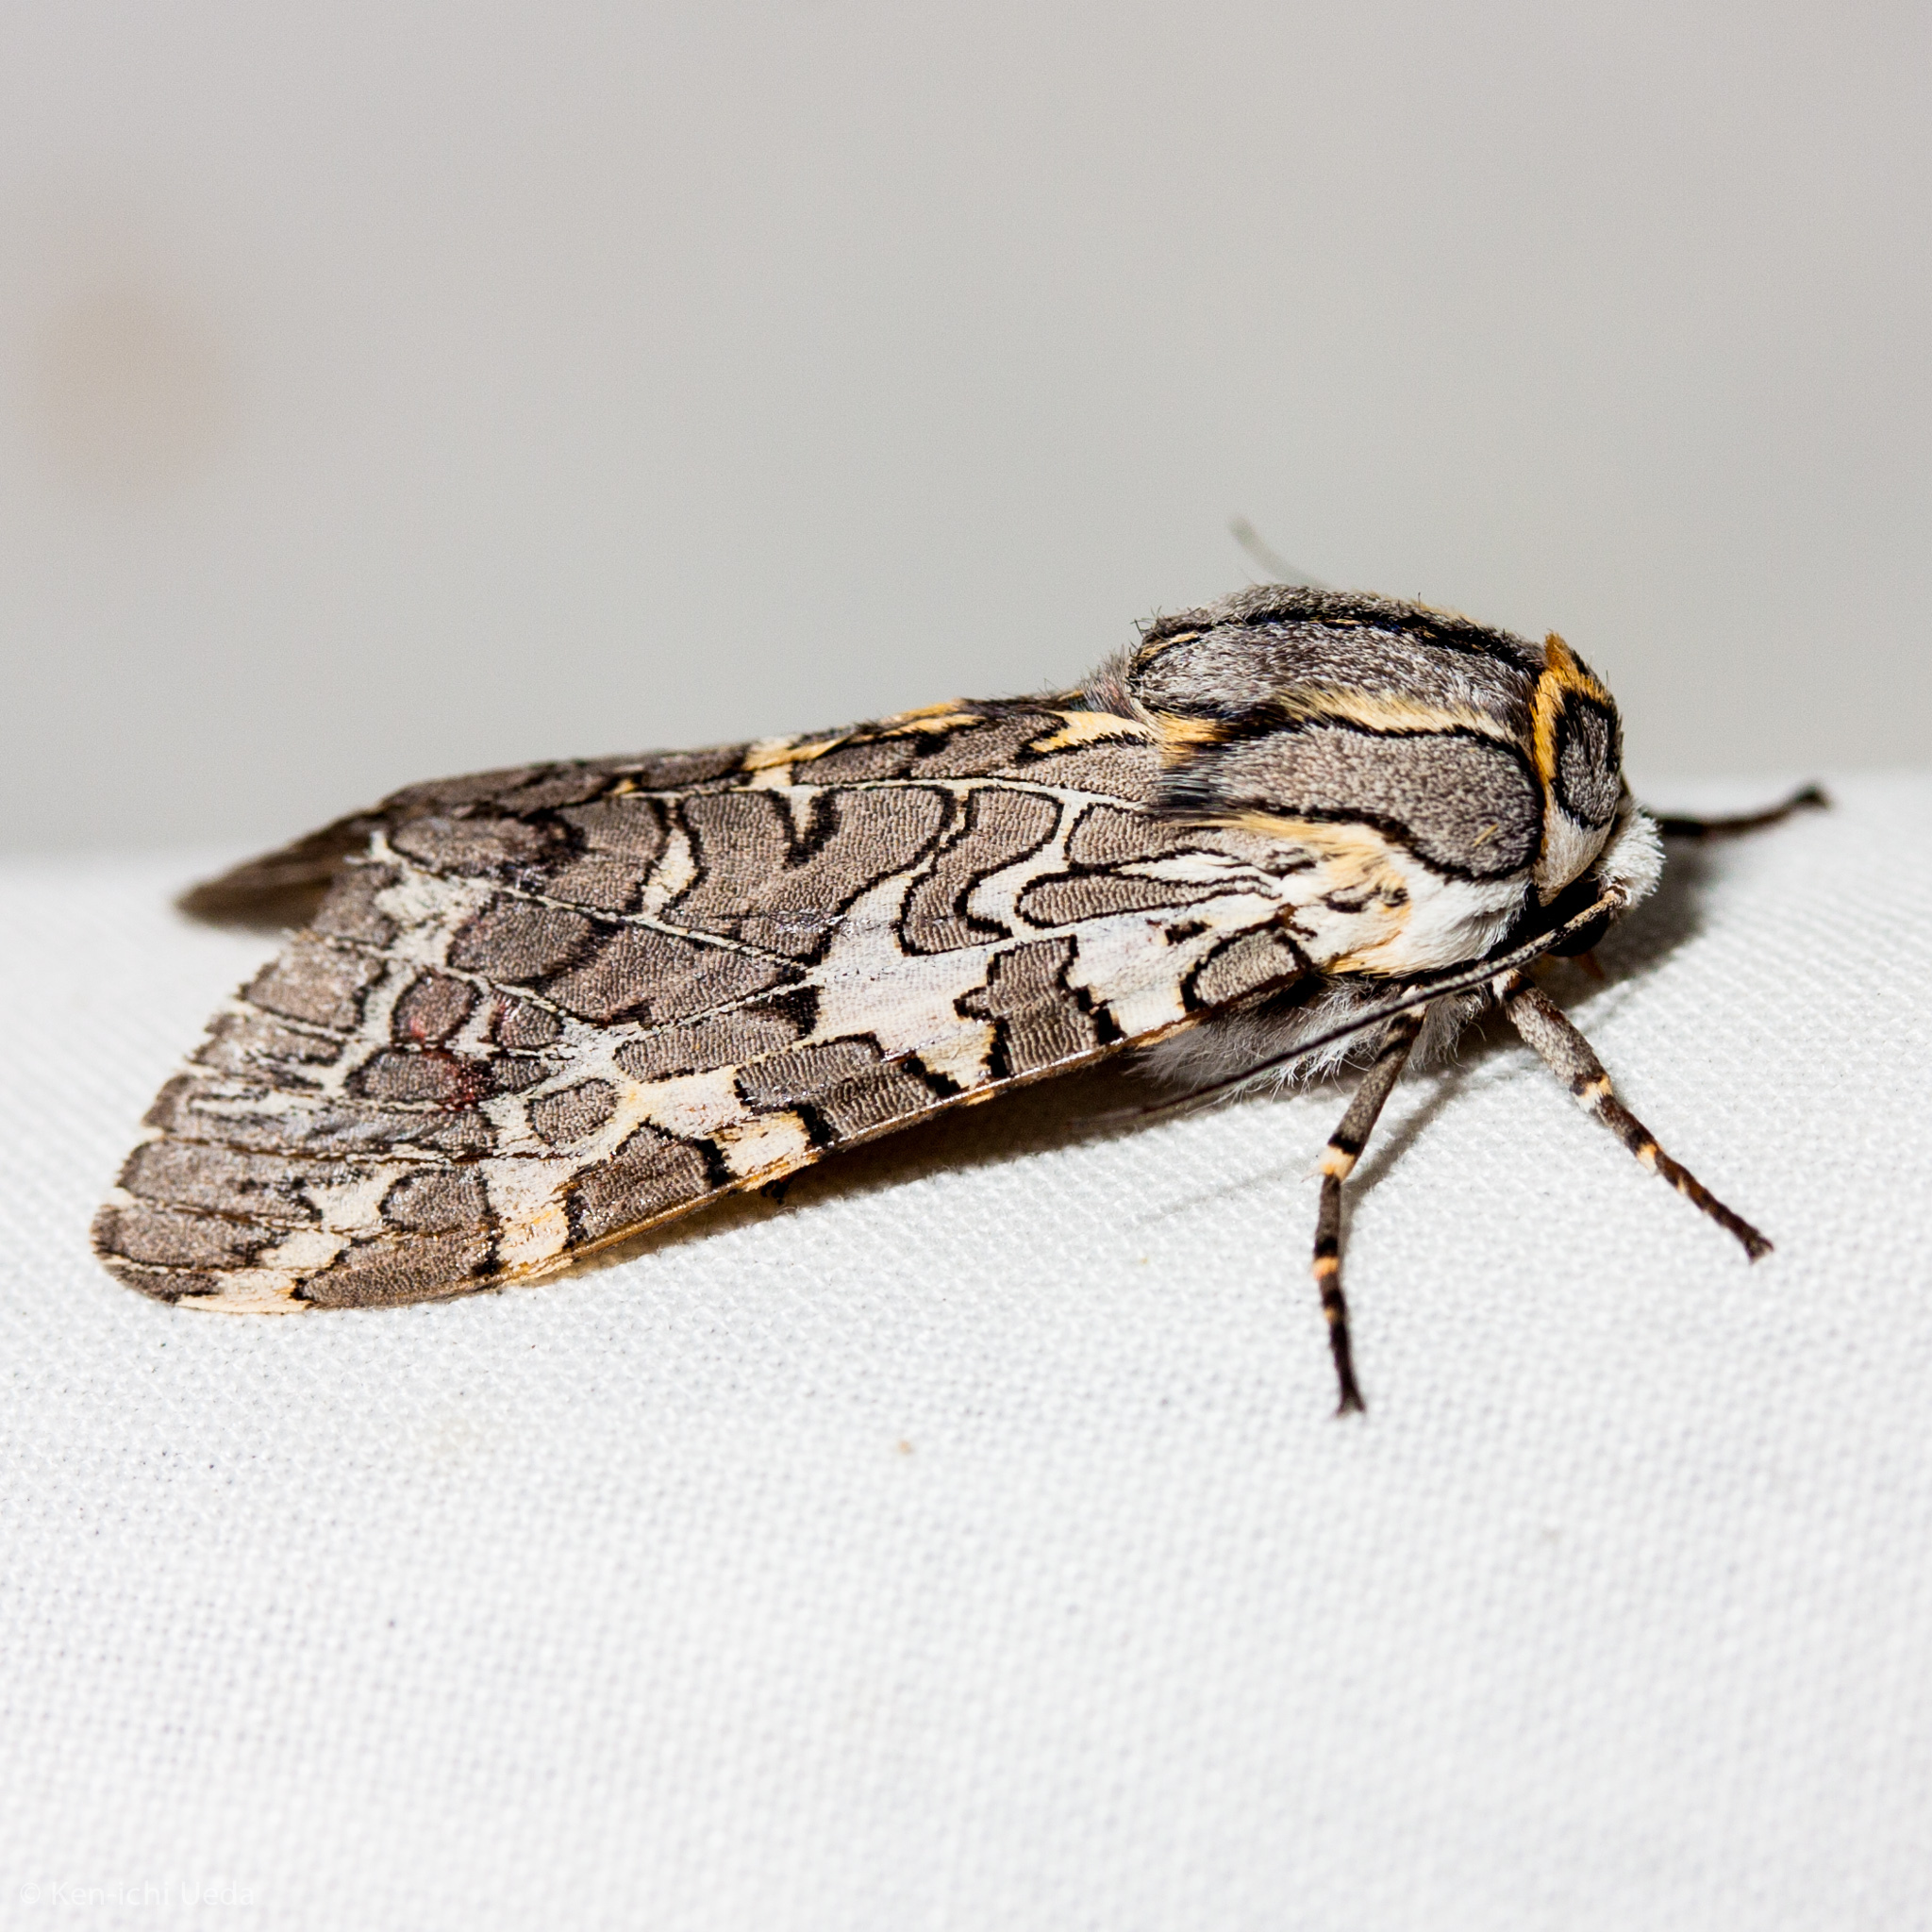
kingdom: Animalia
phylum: Arthropoda
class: Insecta
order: Lepidoptera
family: Erebidae
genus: Arachnis
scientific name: Arachnis picta
